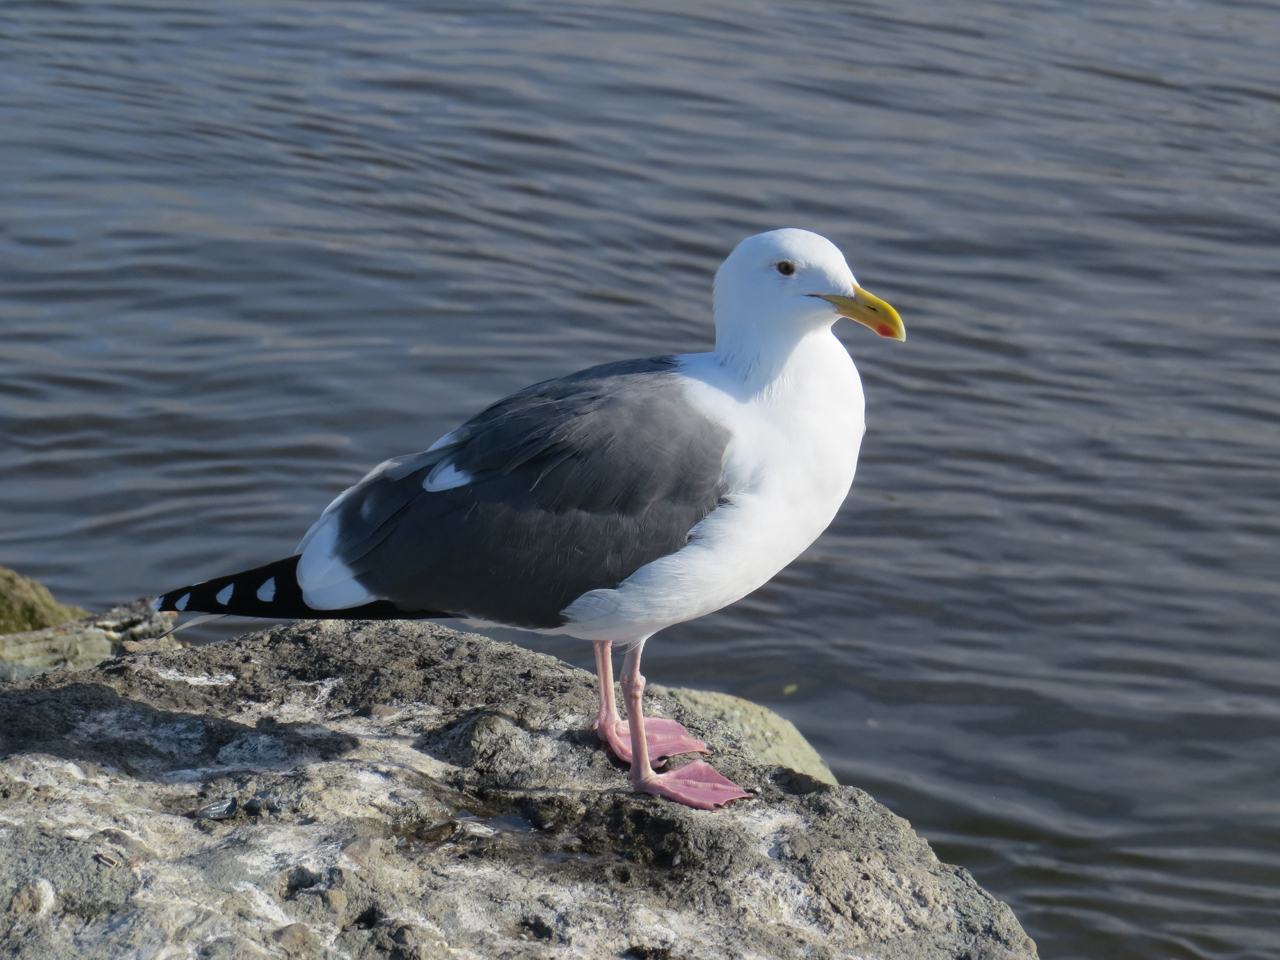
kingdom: Animalia
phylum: Chordata
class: Aves
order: Charadriiformes
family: Laridae
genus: Larus
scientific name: Larus occidentalis
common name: Western gull
